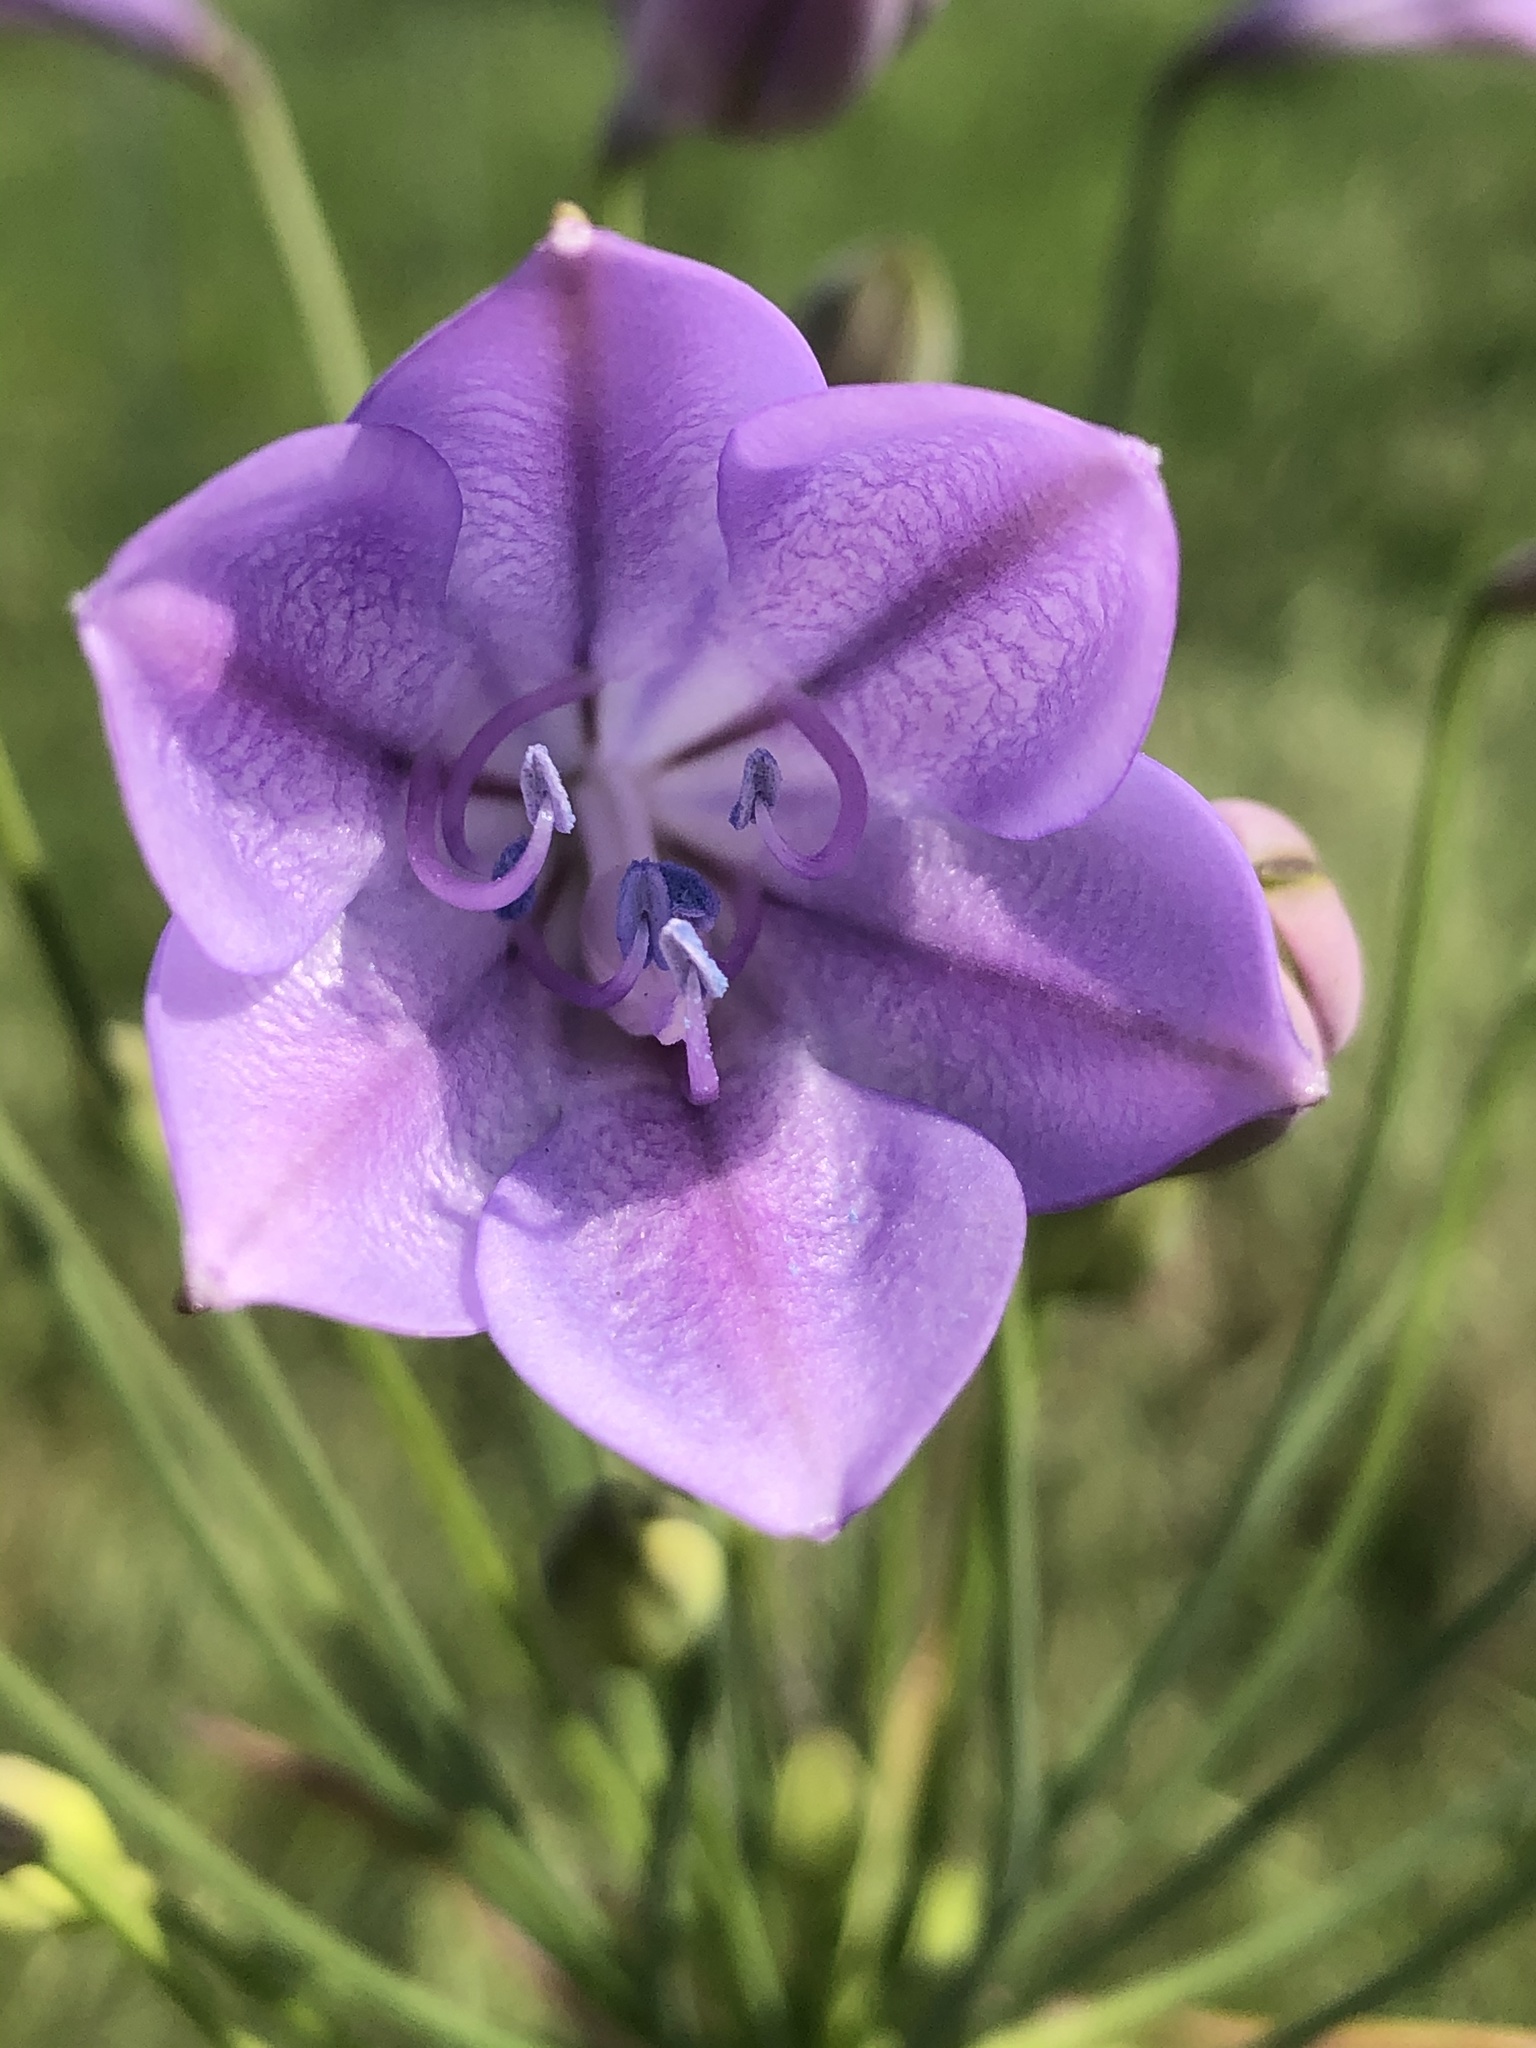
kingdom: Plantae
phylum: Tracheophyta
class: Liliopsida
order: Asparagales
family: Asparagaceae
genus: Triteleia
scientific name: Triteleia laxa
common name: Triplet-lily
